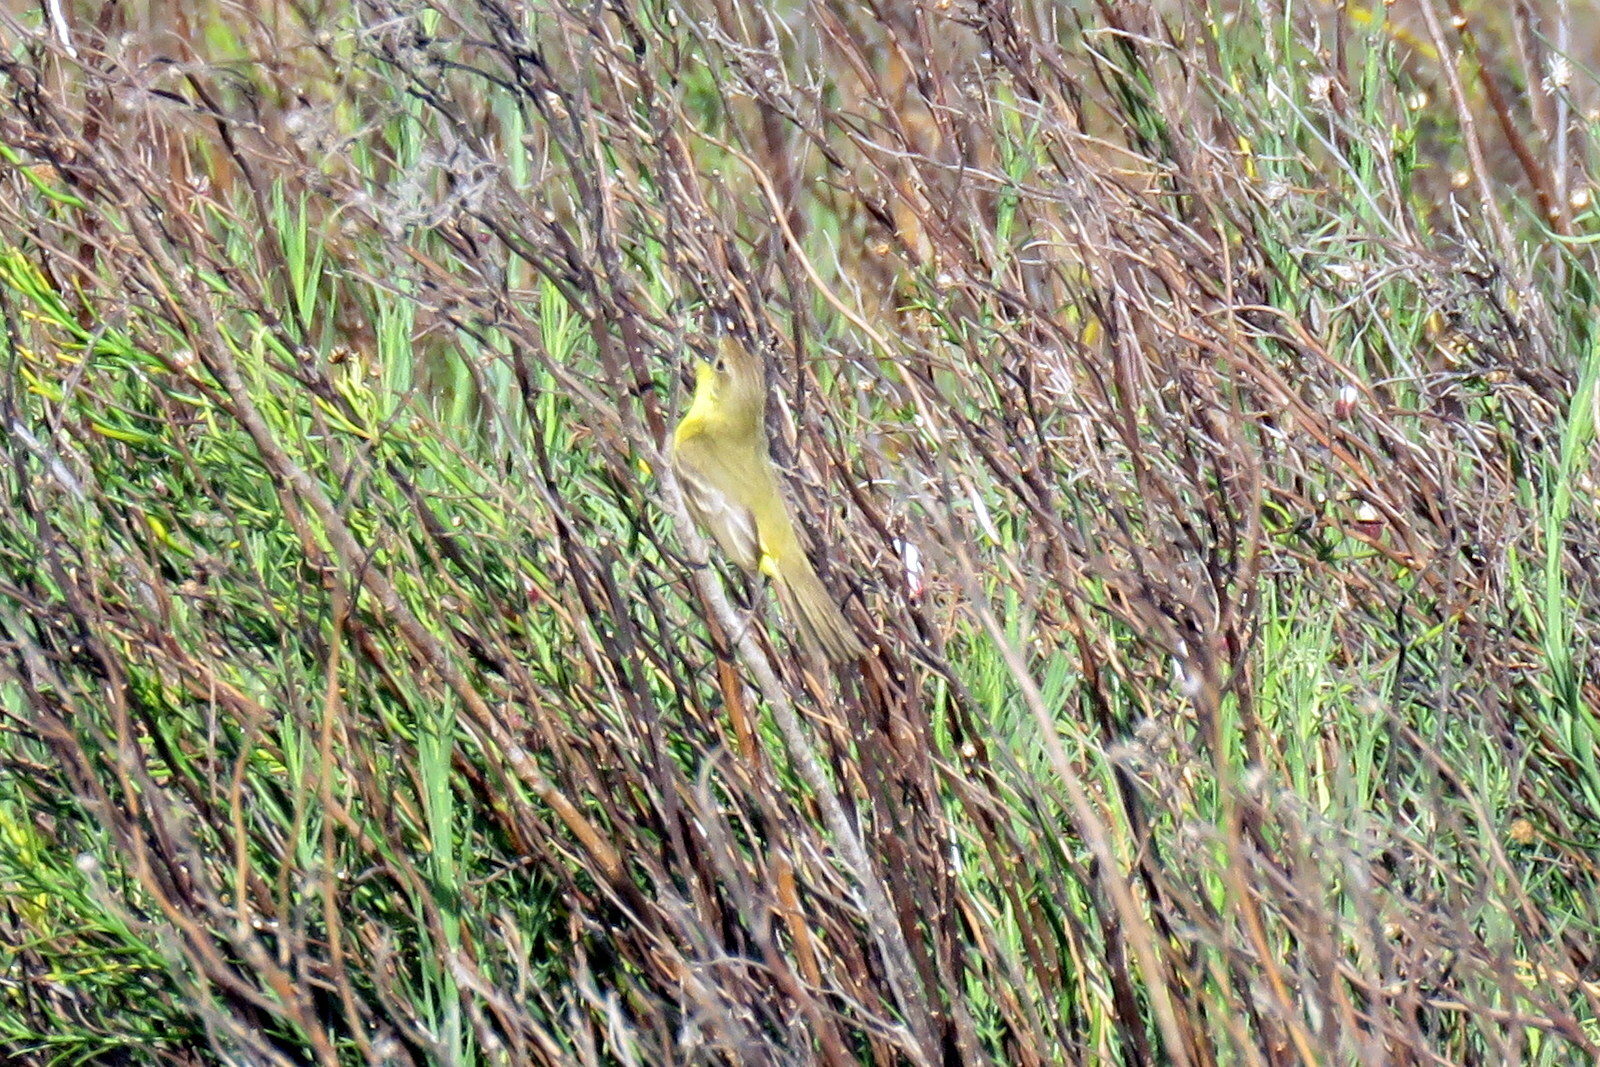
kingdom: Animalia
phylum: Chordata
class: Aves
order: Passeriformes
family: Tyrannidae
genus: Pseudocolopteryx
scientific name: Pseudocolopteryx dinelliana
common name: Dinelli's doradito
